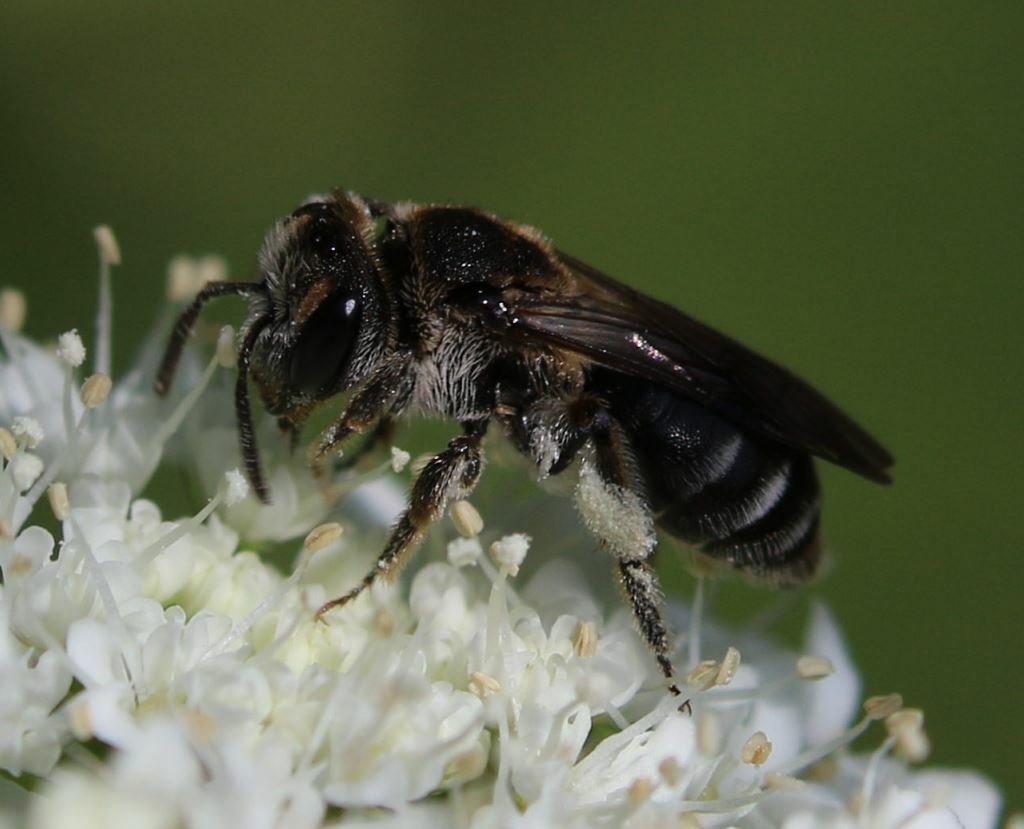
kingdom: Animalia
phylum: Arthropoda
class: Insecta
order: Hymenoptera
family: Andrenidae
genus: Andrena
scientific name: Andrena colletiformis
